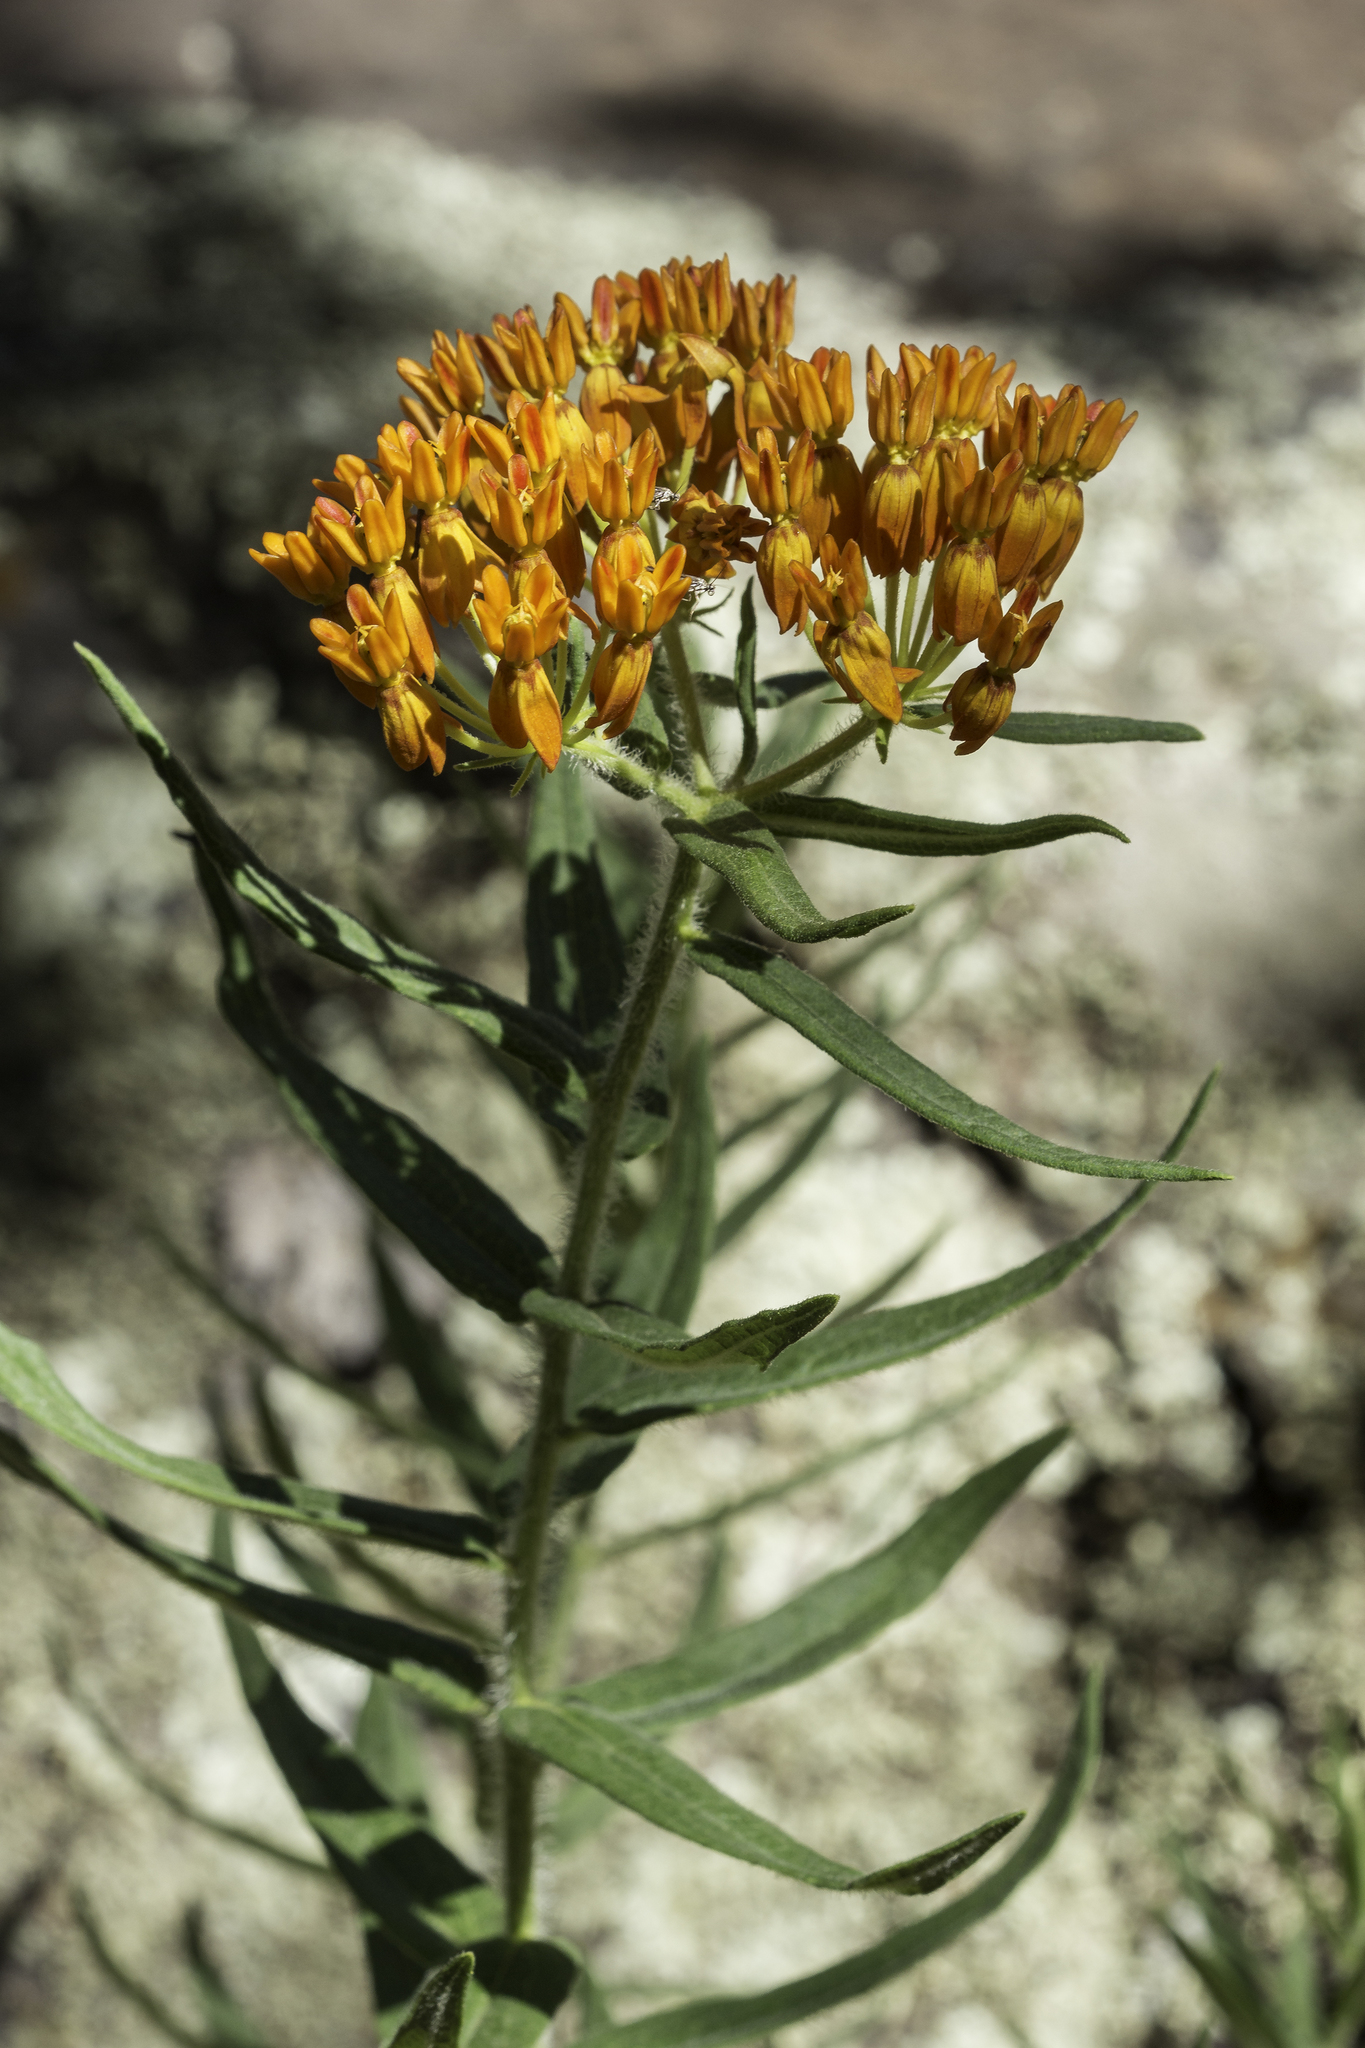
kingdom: Plantae
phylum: Tracheophyta
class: Magnoliopsida
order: Gentianales
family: Apocynaceae
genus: Asclepias
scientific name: Asclepias tuberosa
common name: Butterfly milkweed
